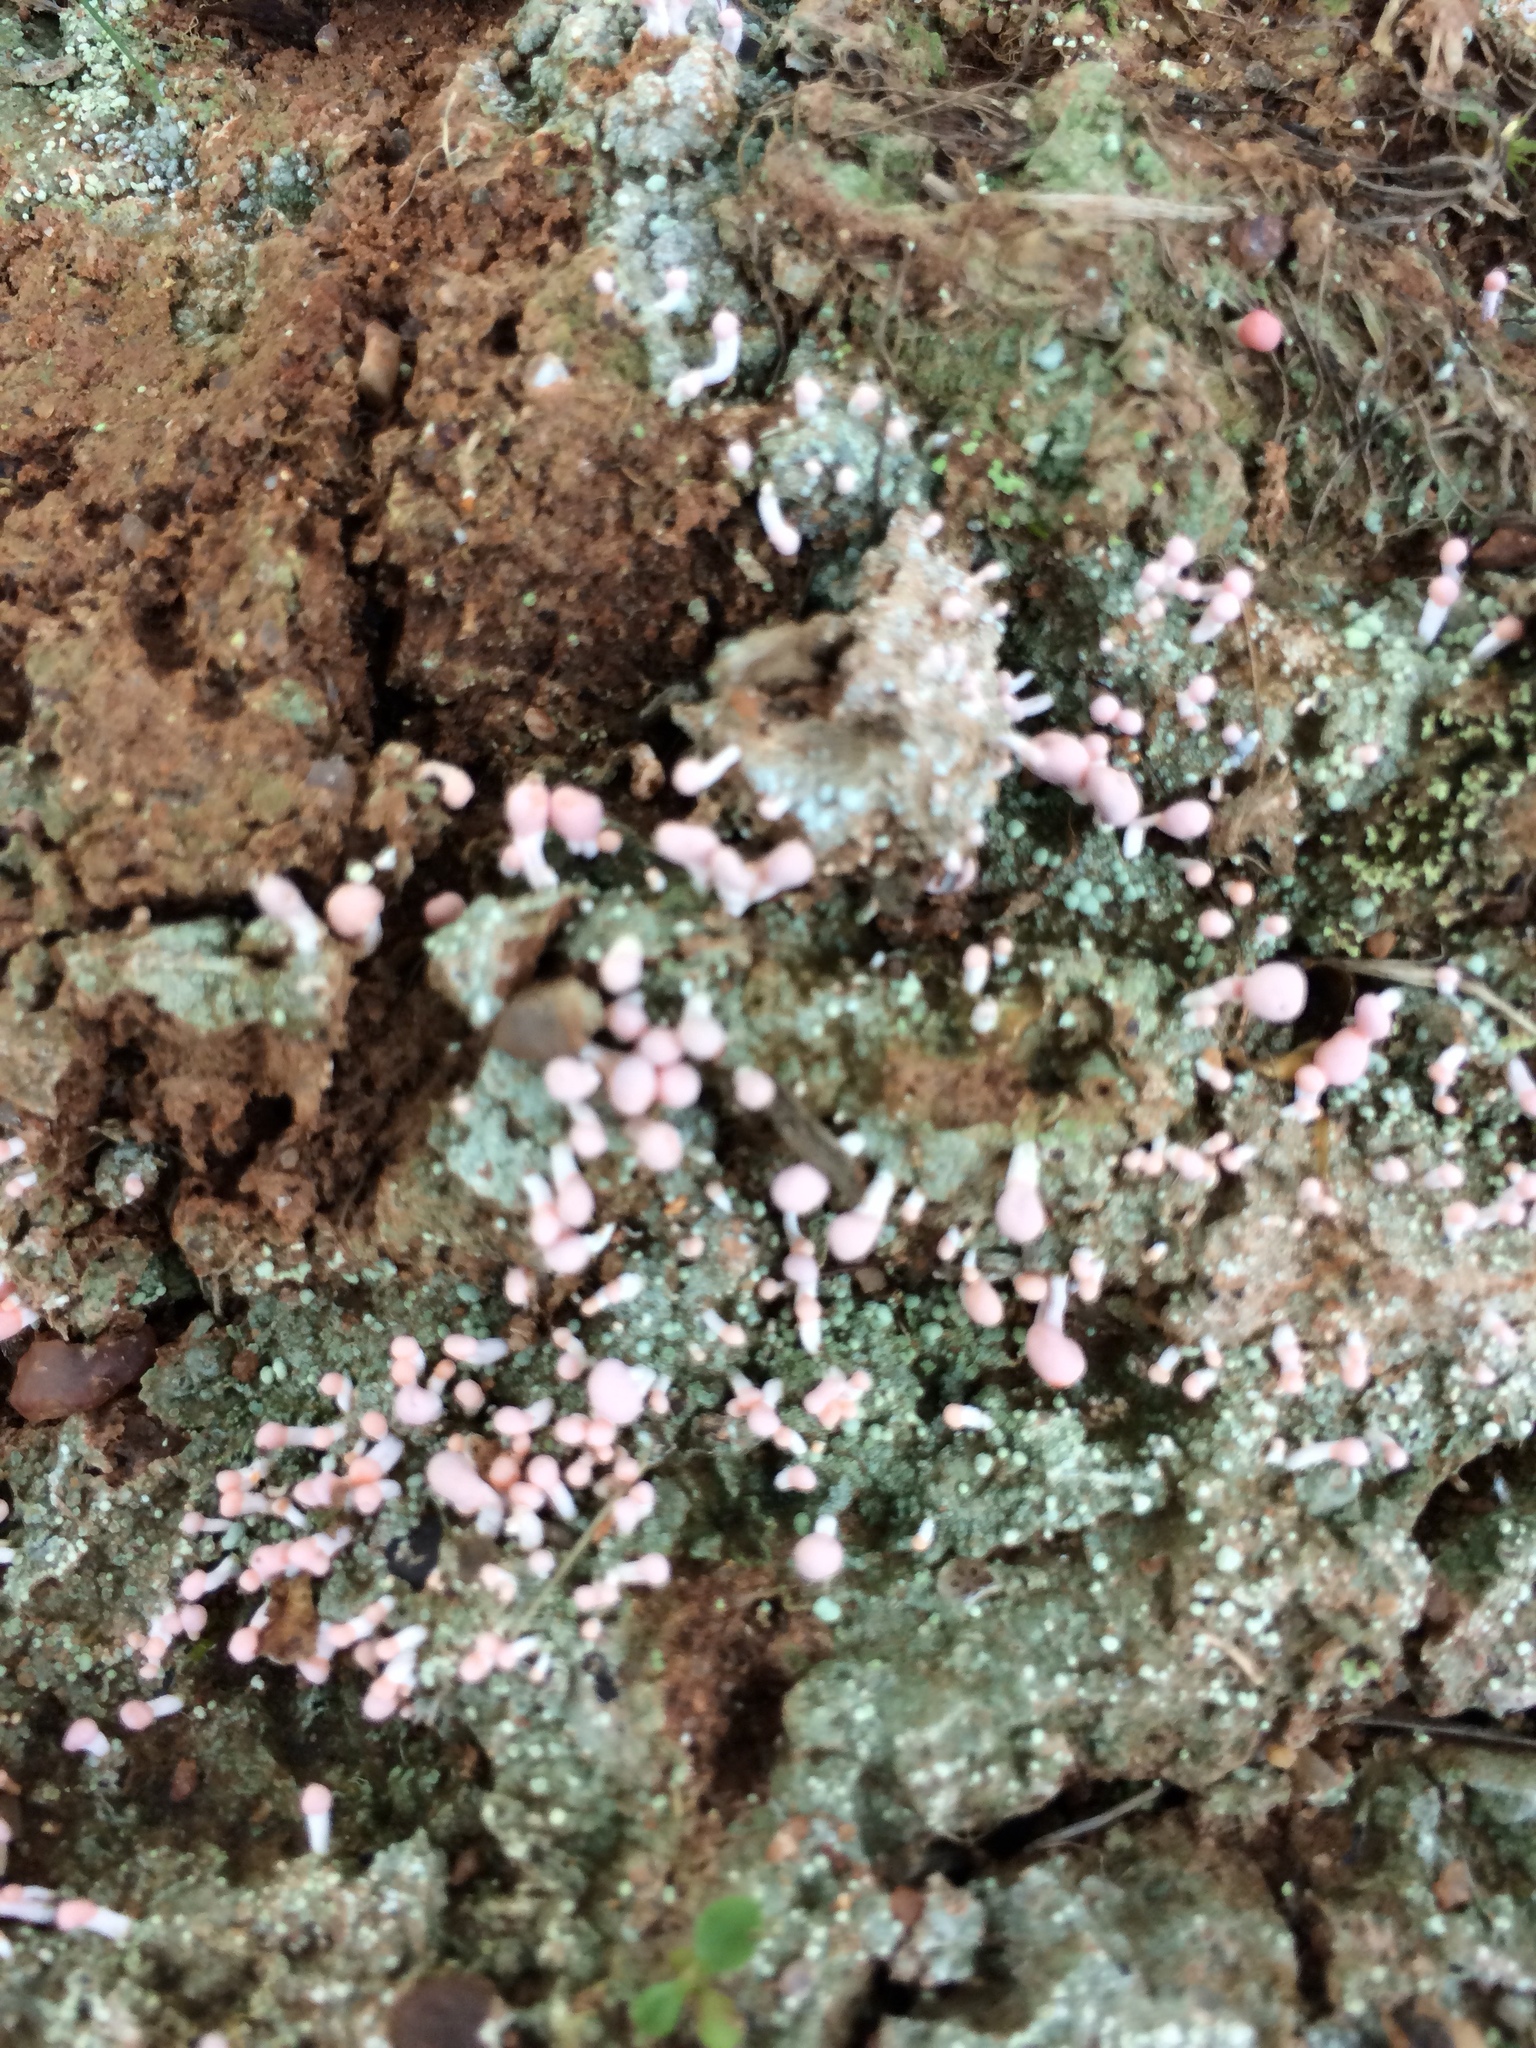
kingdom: Fungi
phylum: Ascomycota
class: Lecanoromycetes
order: Pertusariales
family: Icmadophilaceae
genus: Dibaeis
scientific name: Dibaeis baeomyces
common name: Pink earth lichen
